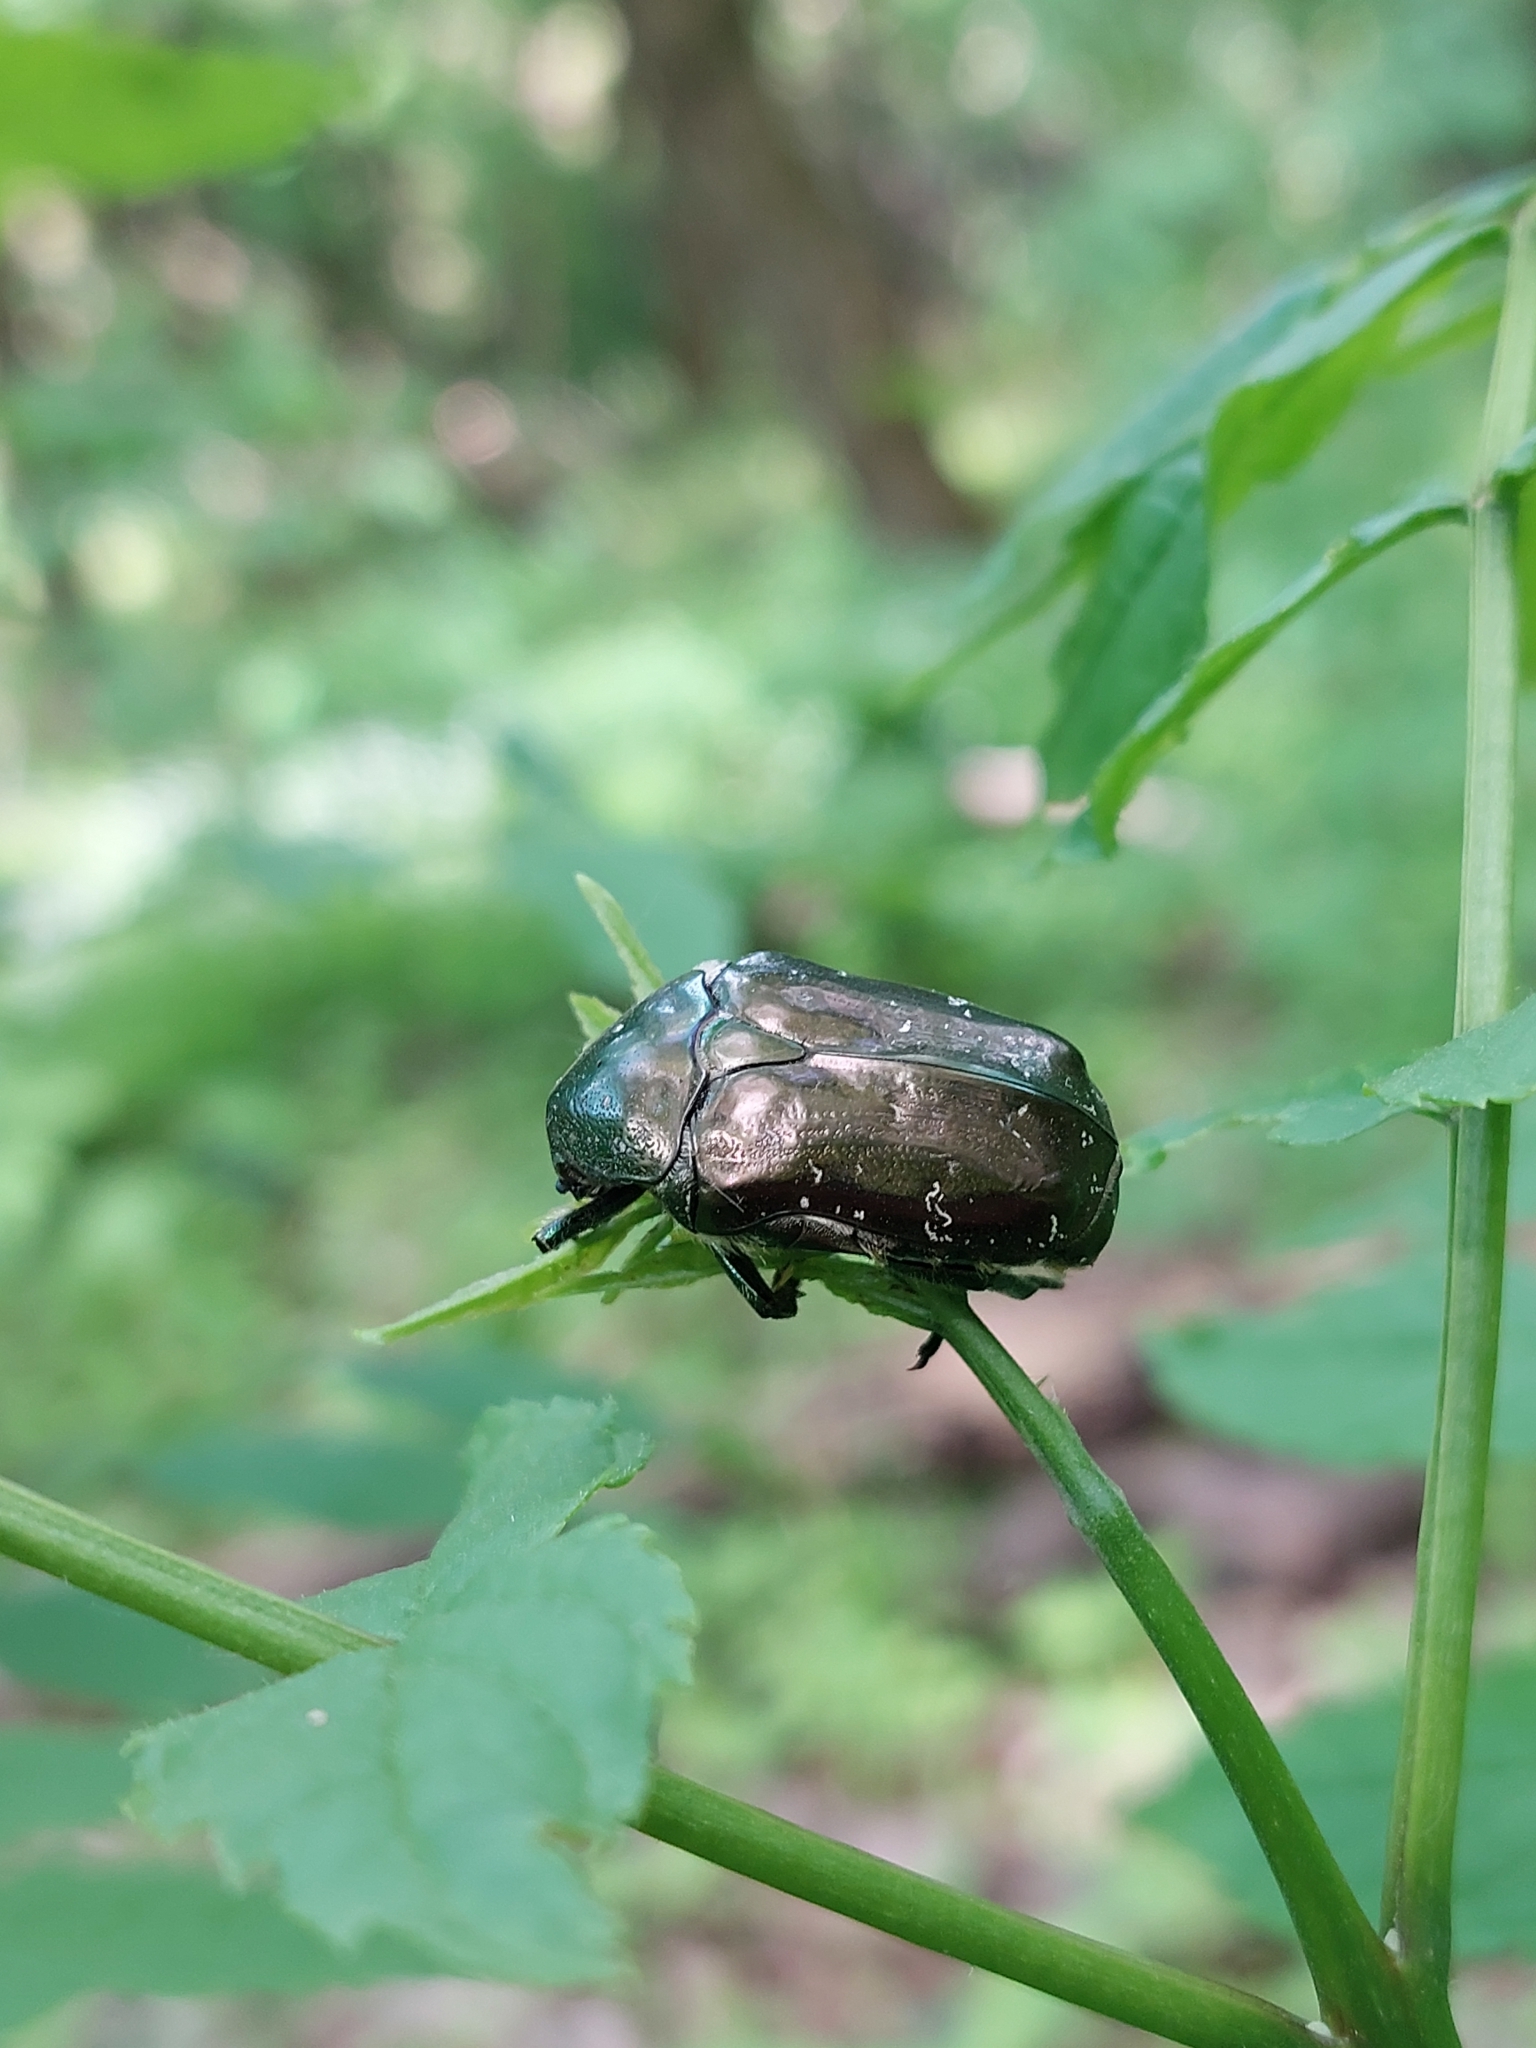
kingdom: Animalia
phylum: Arthropoda
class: Insecta
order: Coleoptera
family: Scarabaeidae
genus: Protaetia
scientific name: Protaetia marmorata
